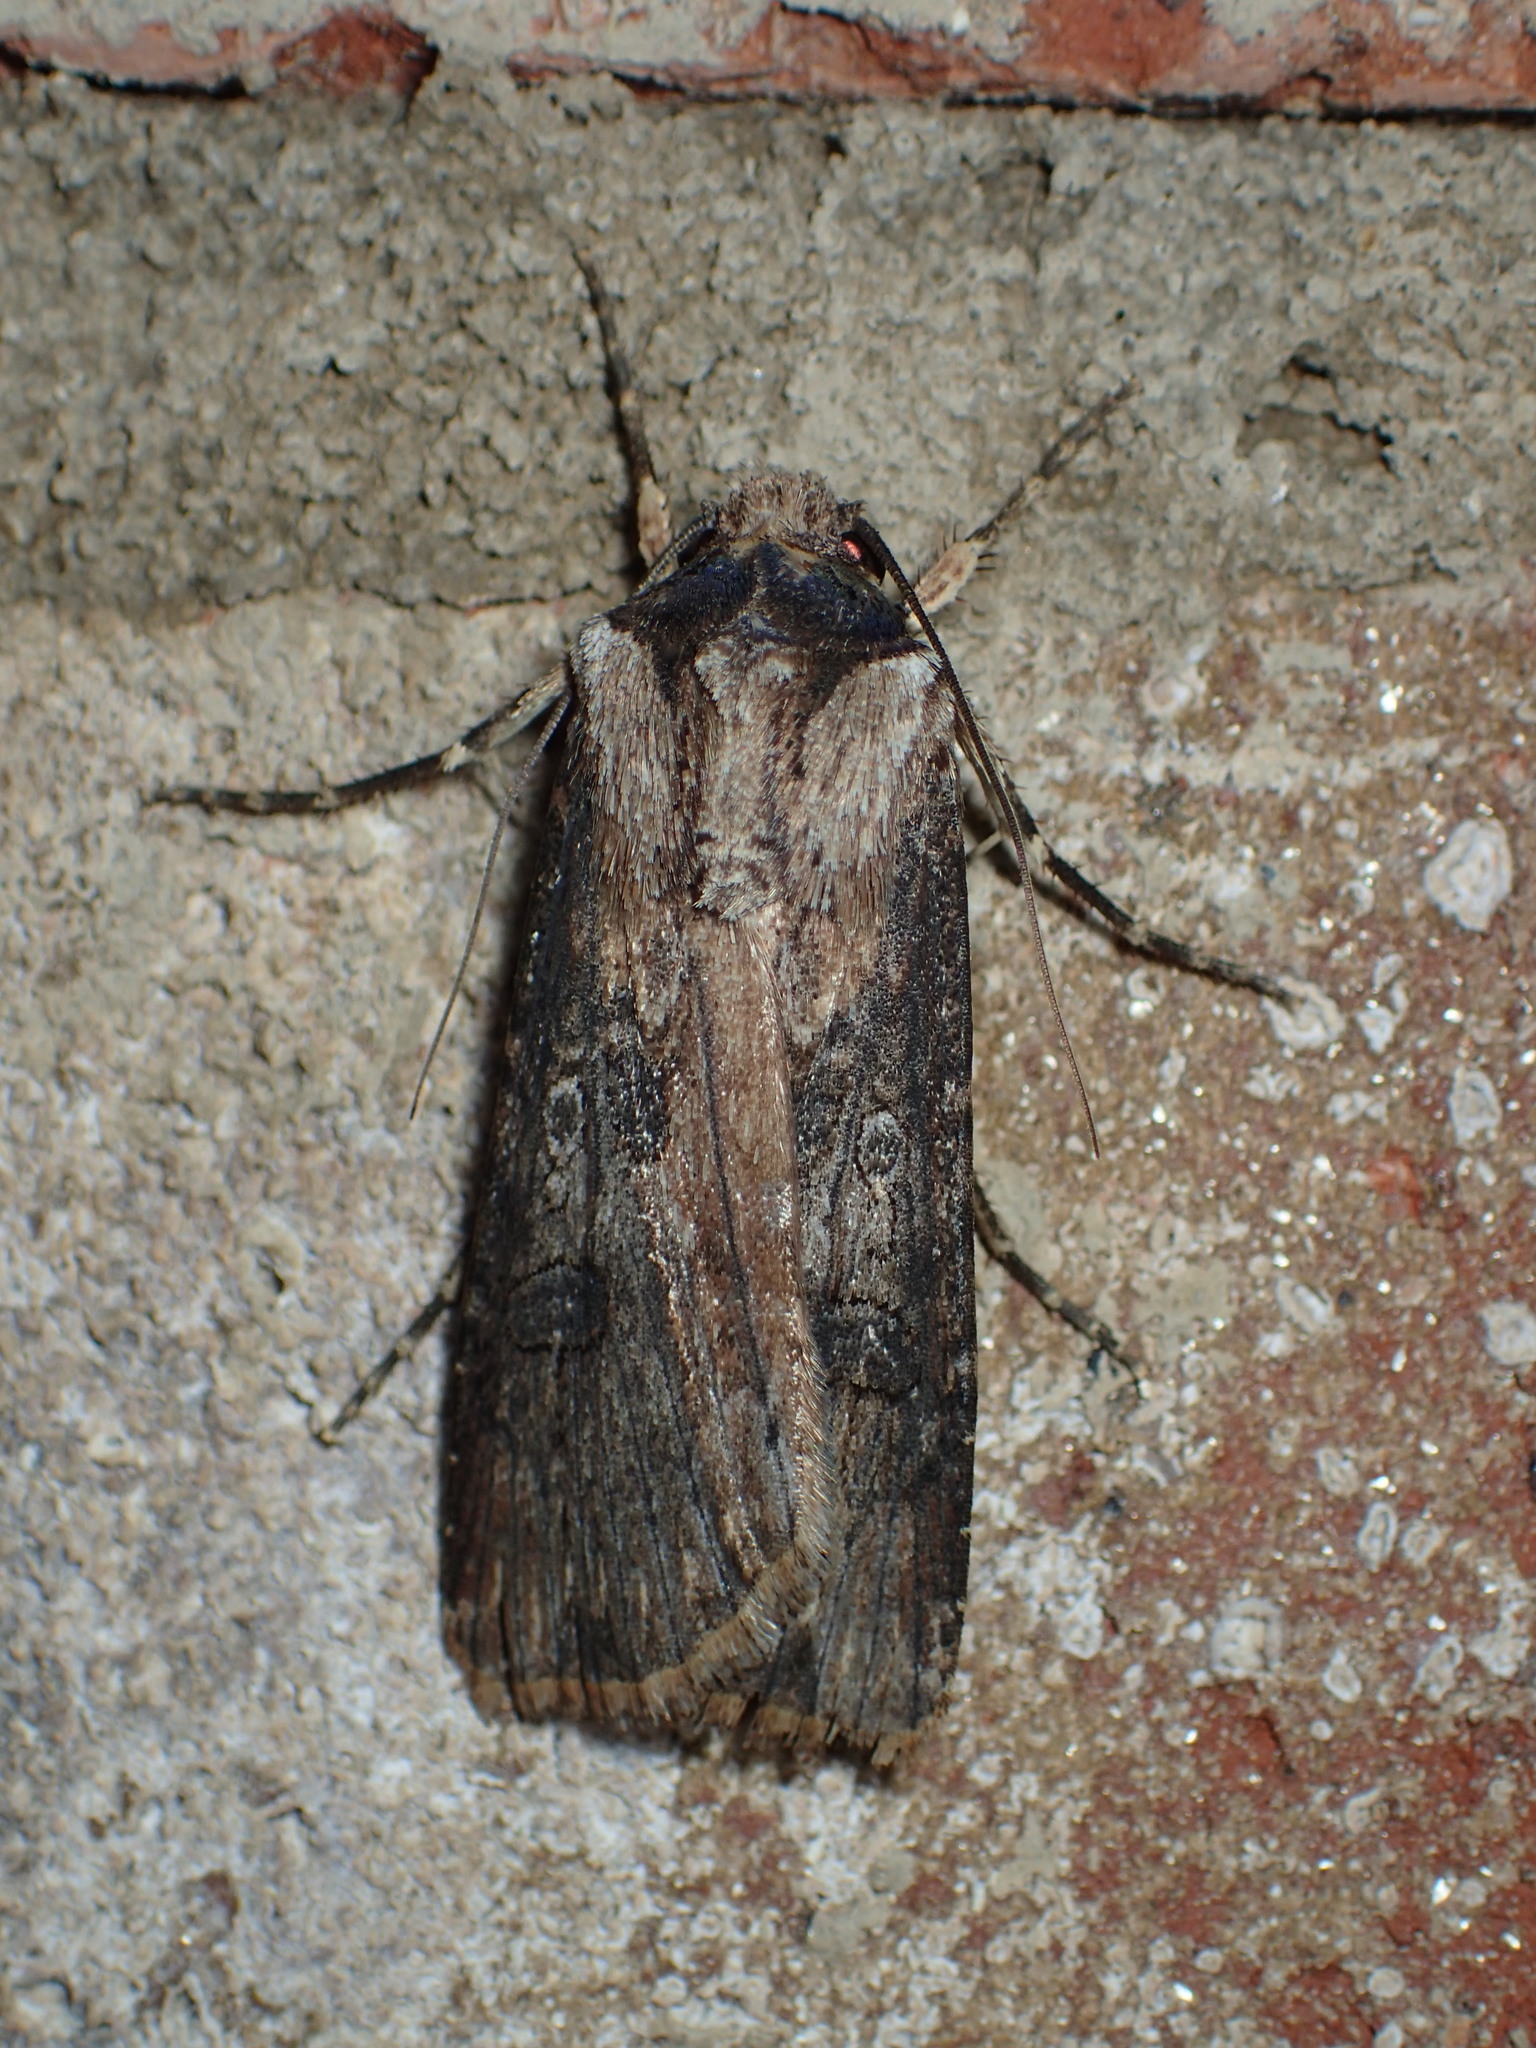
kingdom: Animalia
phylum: Arthropoda
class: Insecta
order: Lepidoptera
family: Noctuidae
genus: Agrotis
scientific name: Agrotis malefida
